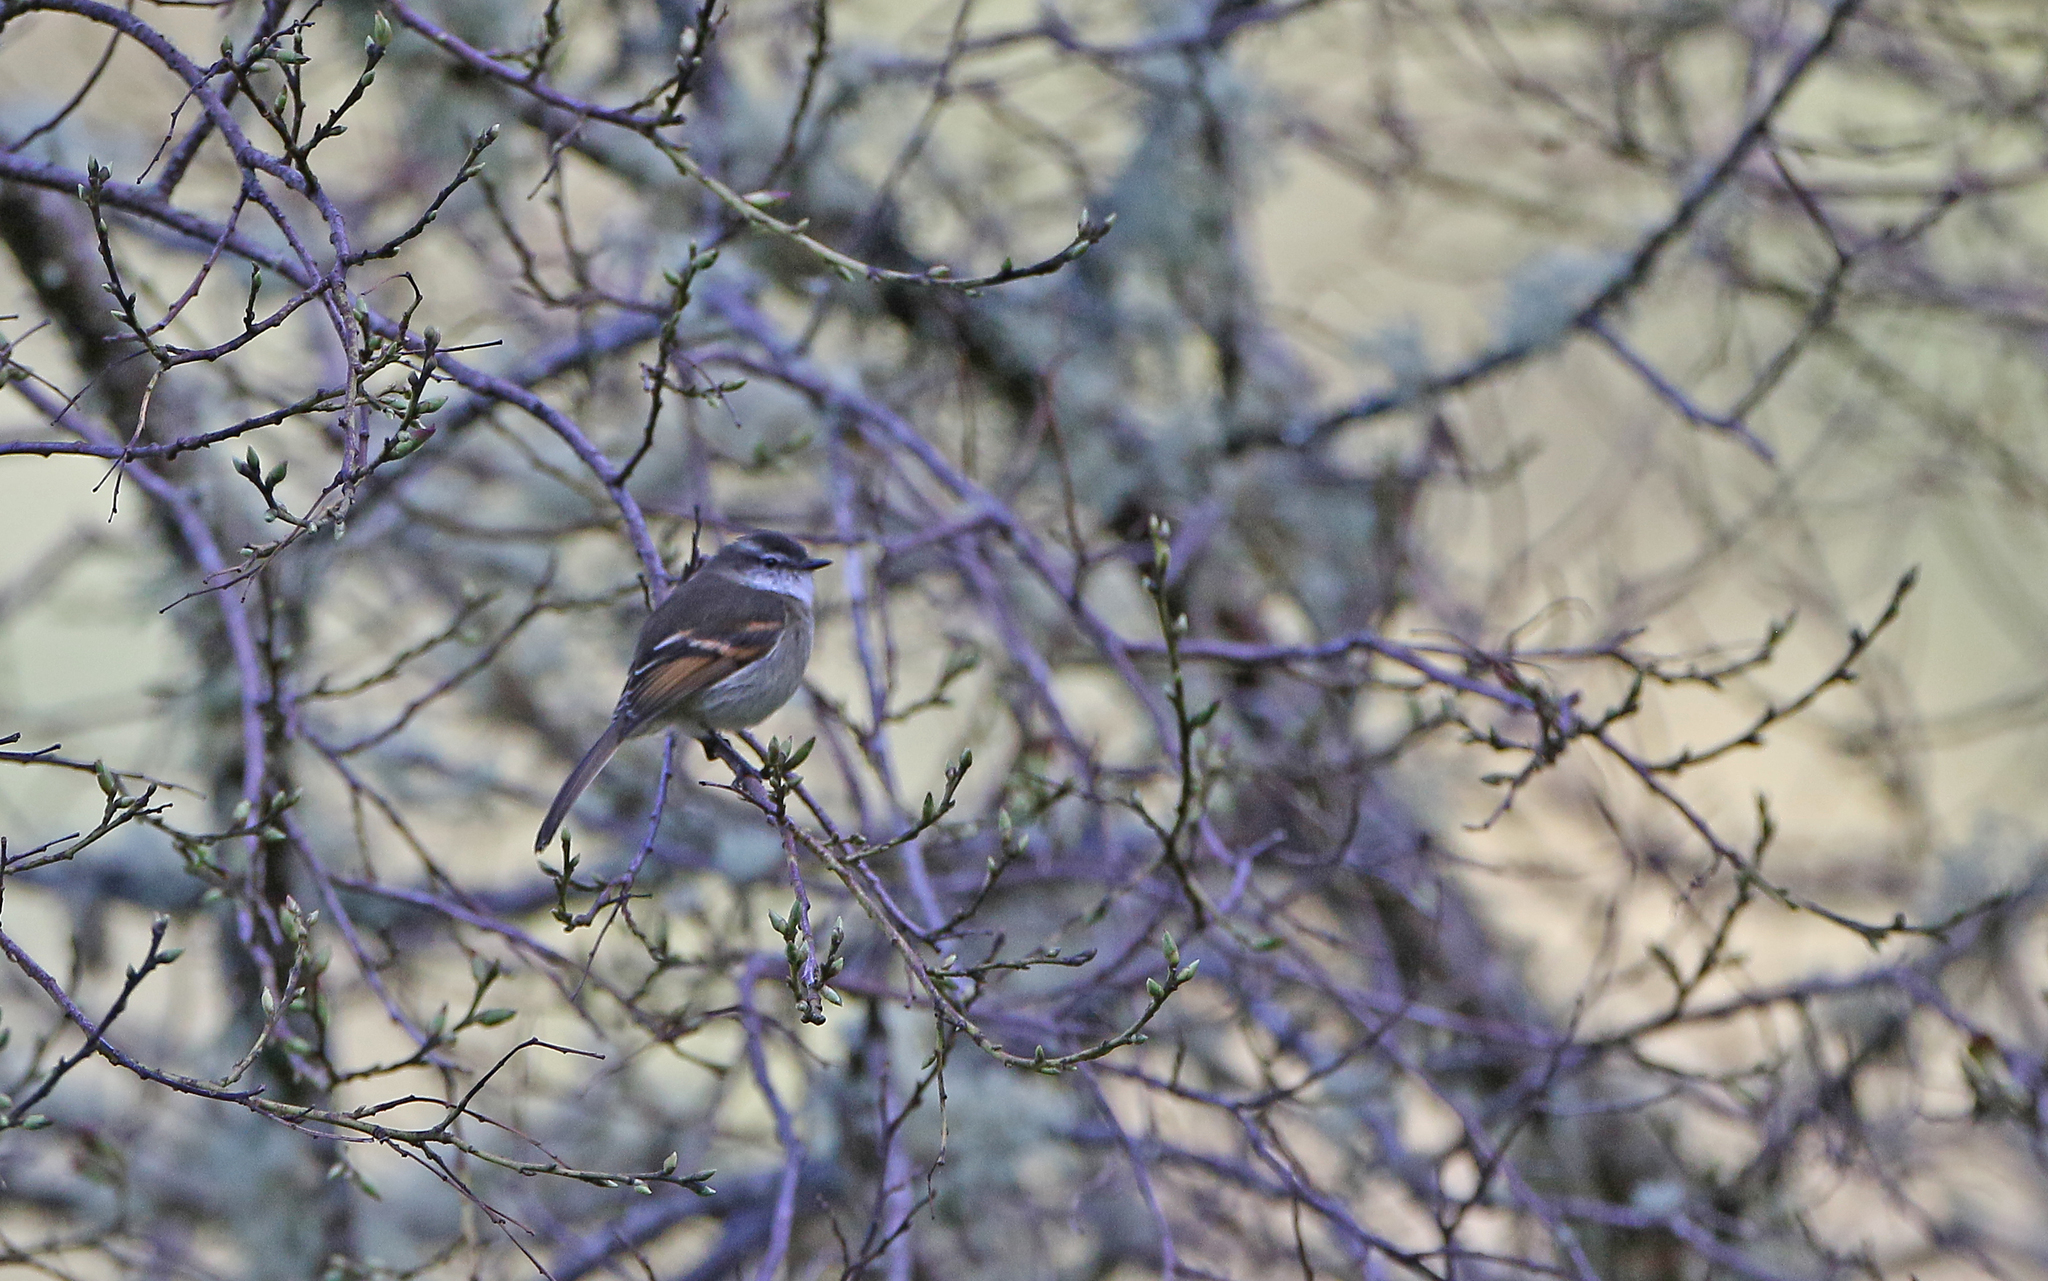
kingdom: Animalia
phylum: Chordata
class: Aves
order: Passeriformes
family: Tyrannidae
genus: Mecocerculus
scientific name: Mecocerculus leucophrys
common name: White-throated tyrannulet
